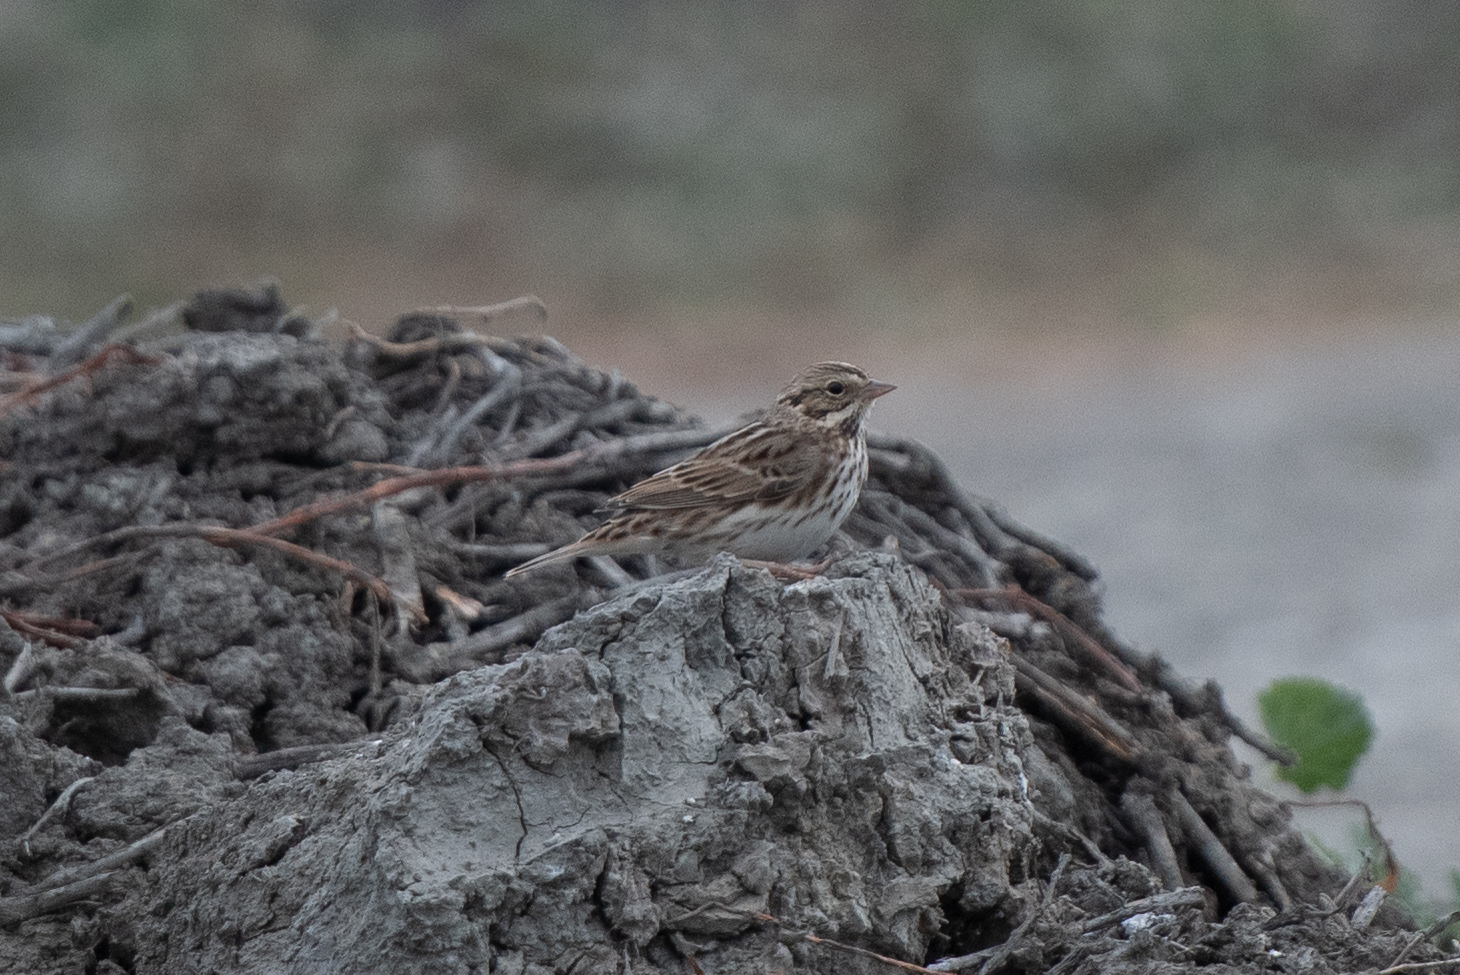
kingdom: Animalia
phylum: Chordata
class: Aves
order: Passeriformes
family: Passerellidae
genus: Passerculus
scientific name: Passerculus sandwichensis
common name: Savannah sparrow
